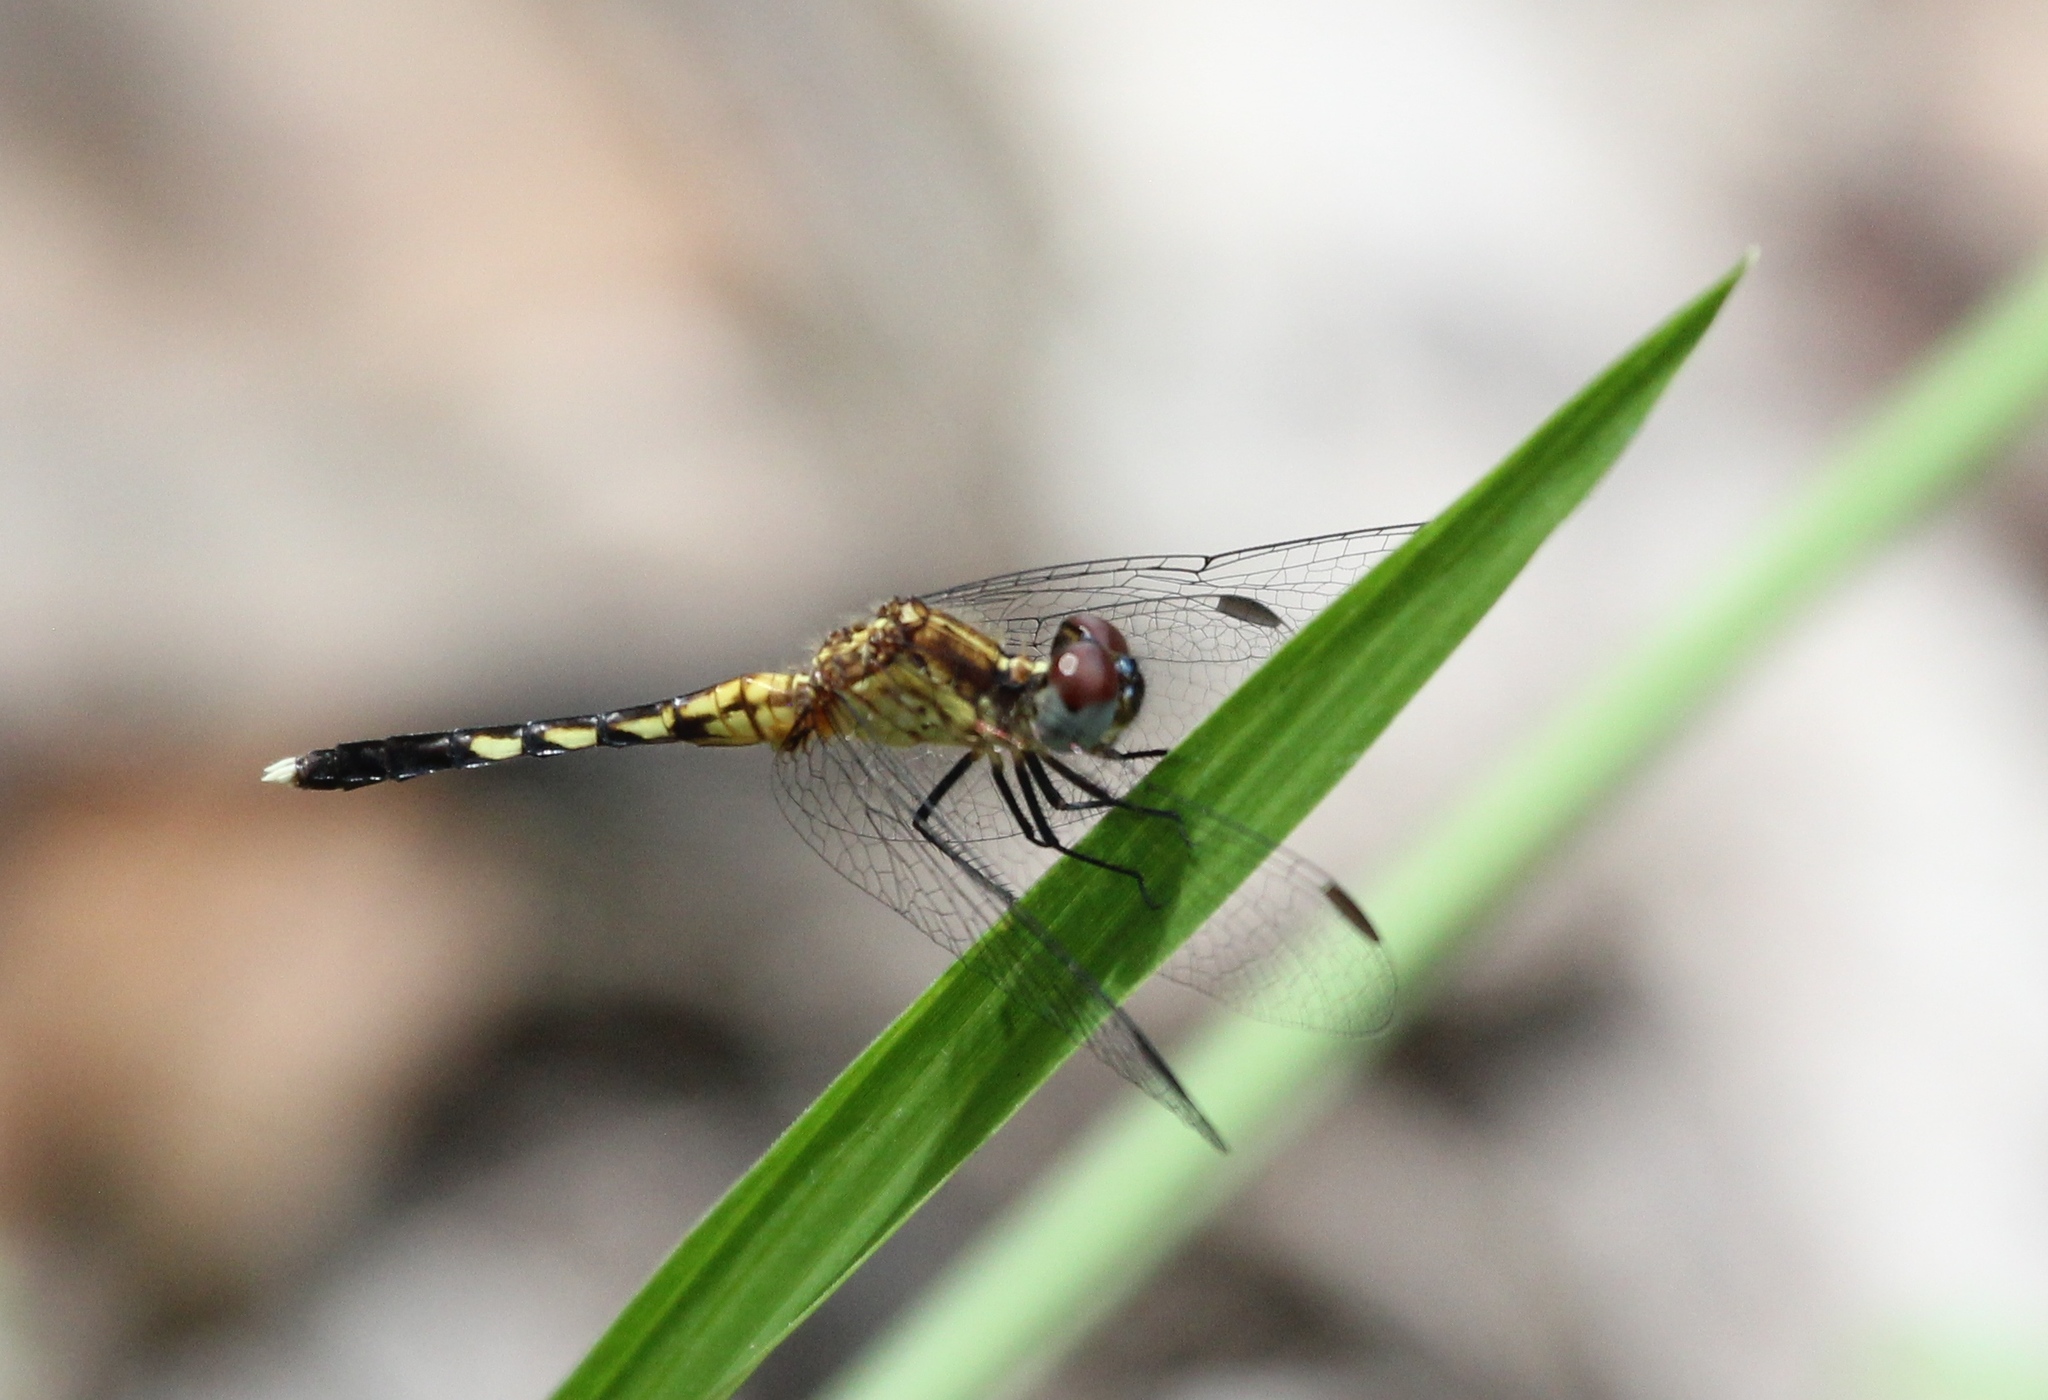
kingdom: Animalia
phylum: Arthropoda
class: Insecta
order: Odonata
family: Libellulidae
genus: Erythrodiplax
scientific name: Erythrodiplax minuscula
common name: Little blue dragonlet
